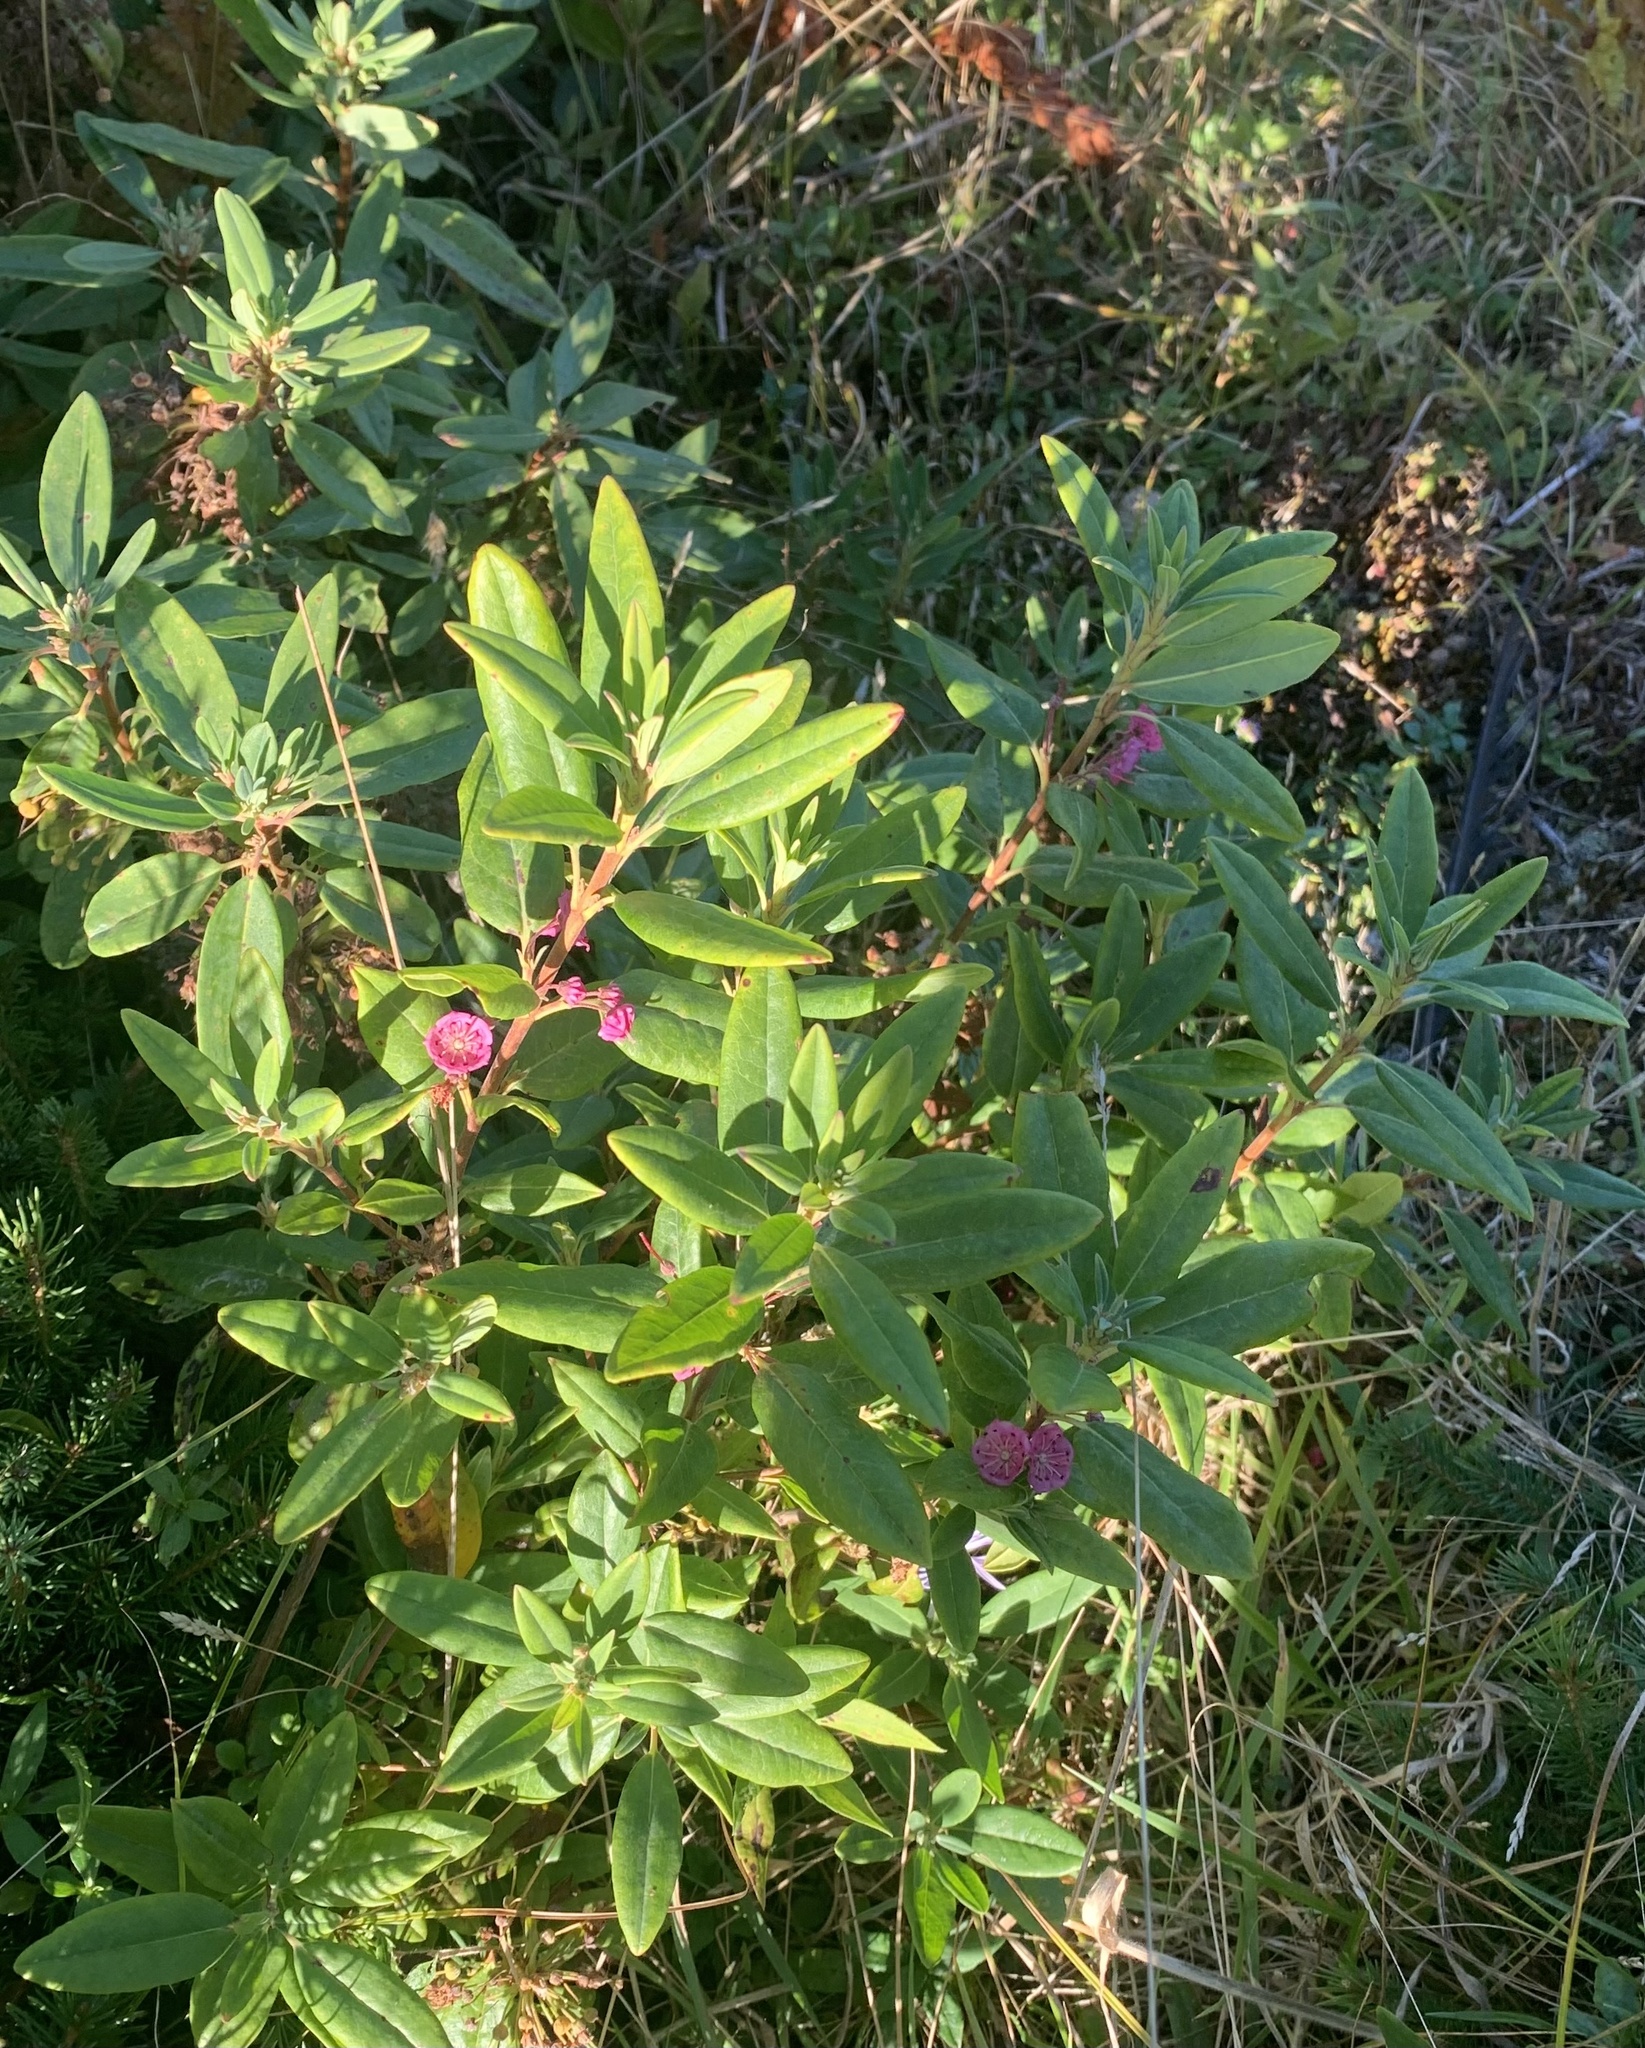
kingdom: Plantae
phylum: Tracheophyta
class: Magnoliopsida
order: Ericales
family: Ericaceae
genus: Kalmia
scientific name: Kalmia angustifolia
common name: Sheep-laurel
